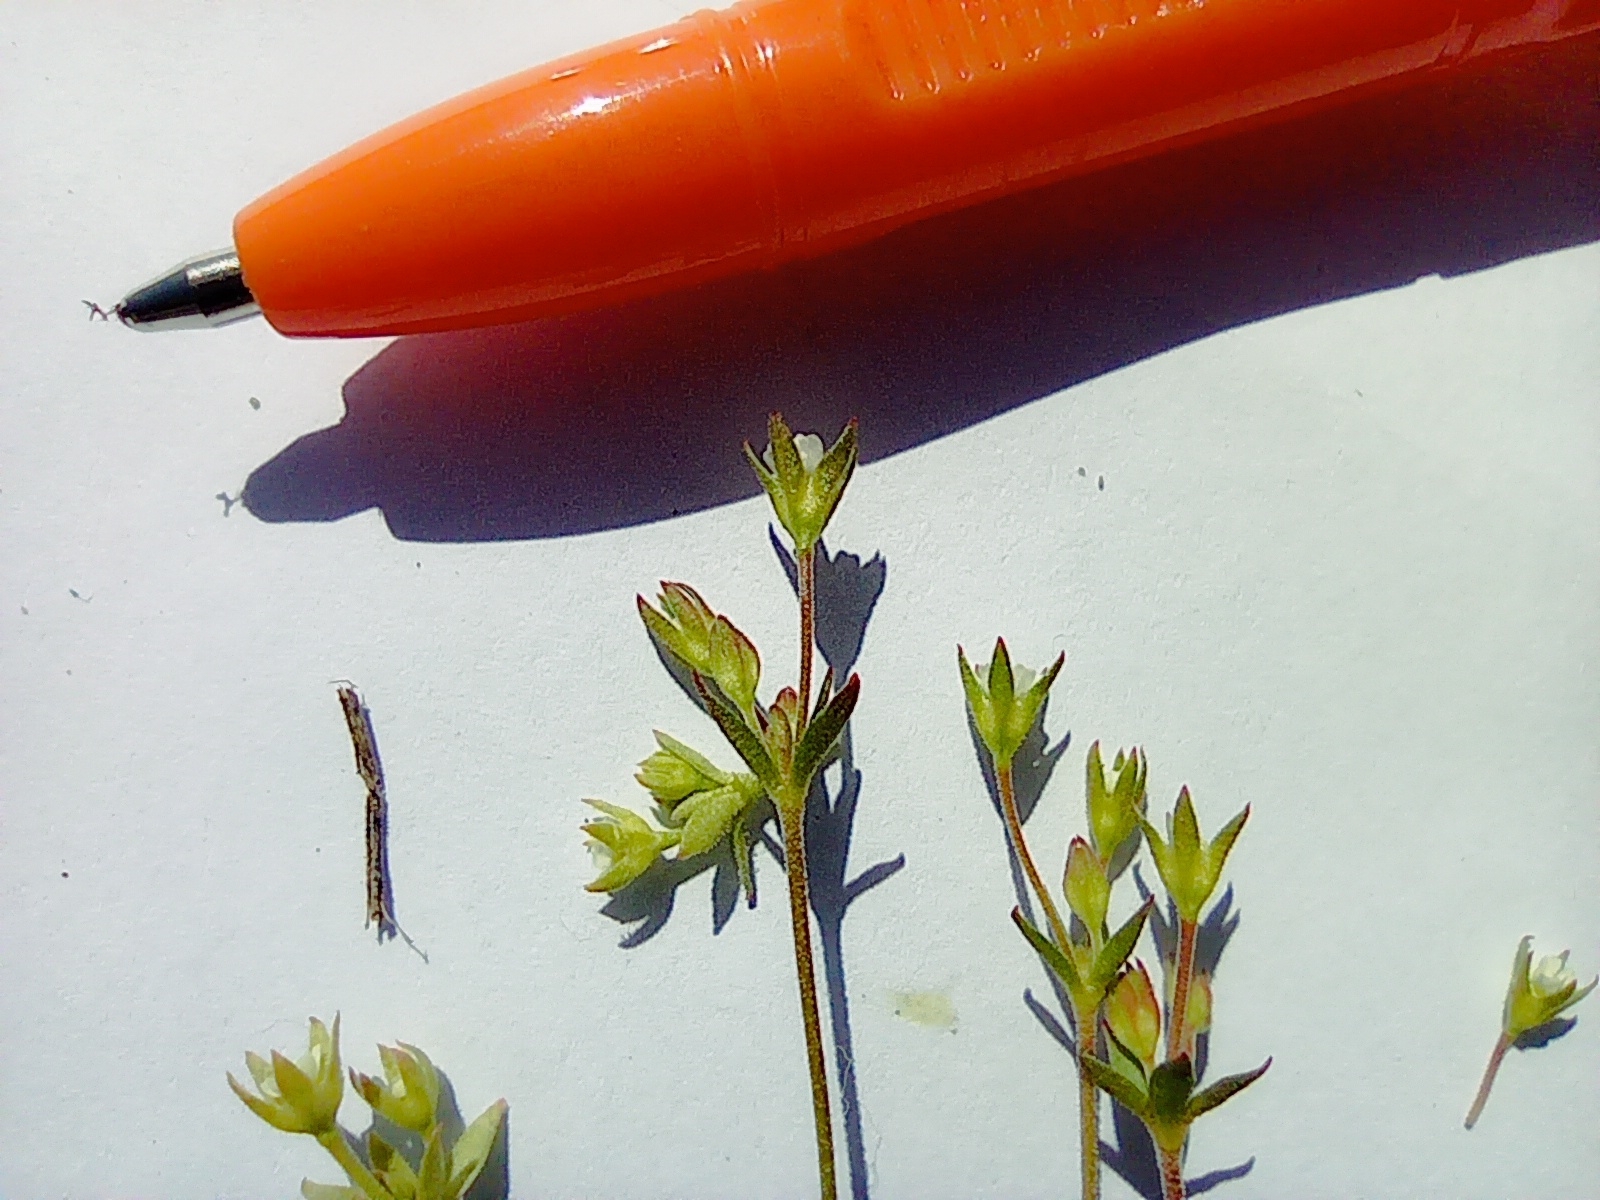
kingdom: Plantae
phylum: Tracheophyta
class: Magnoliopsida
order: Ericales
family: Primulaceae
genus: Androsace
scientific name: Androsace elongata
